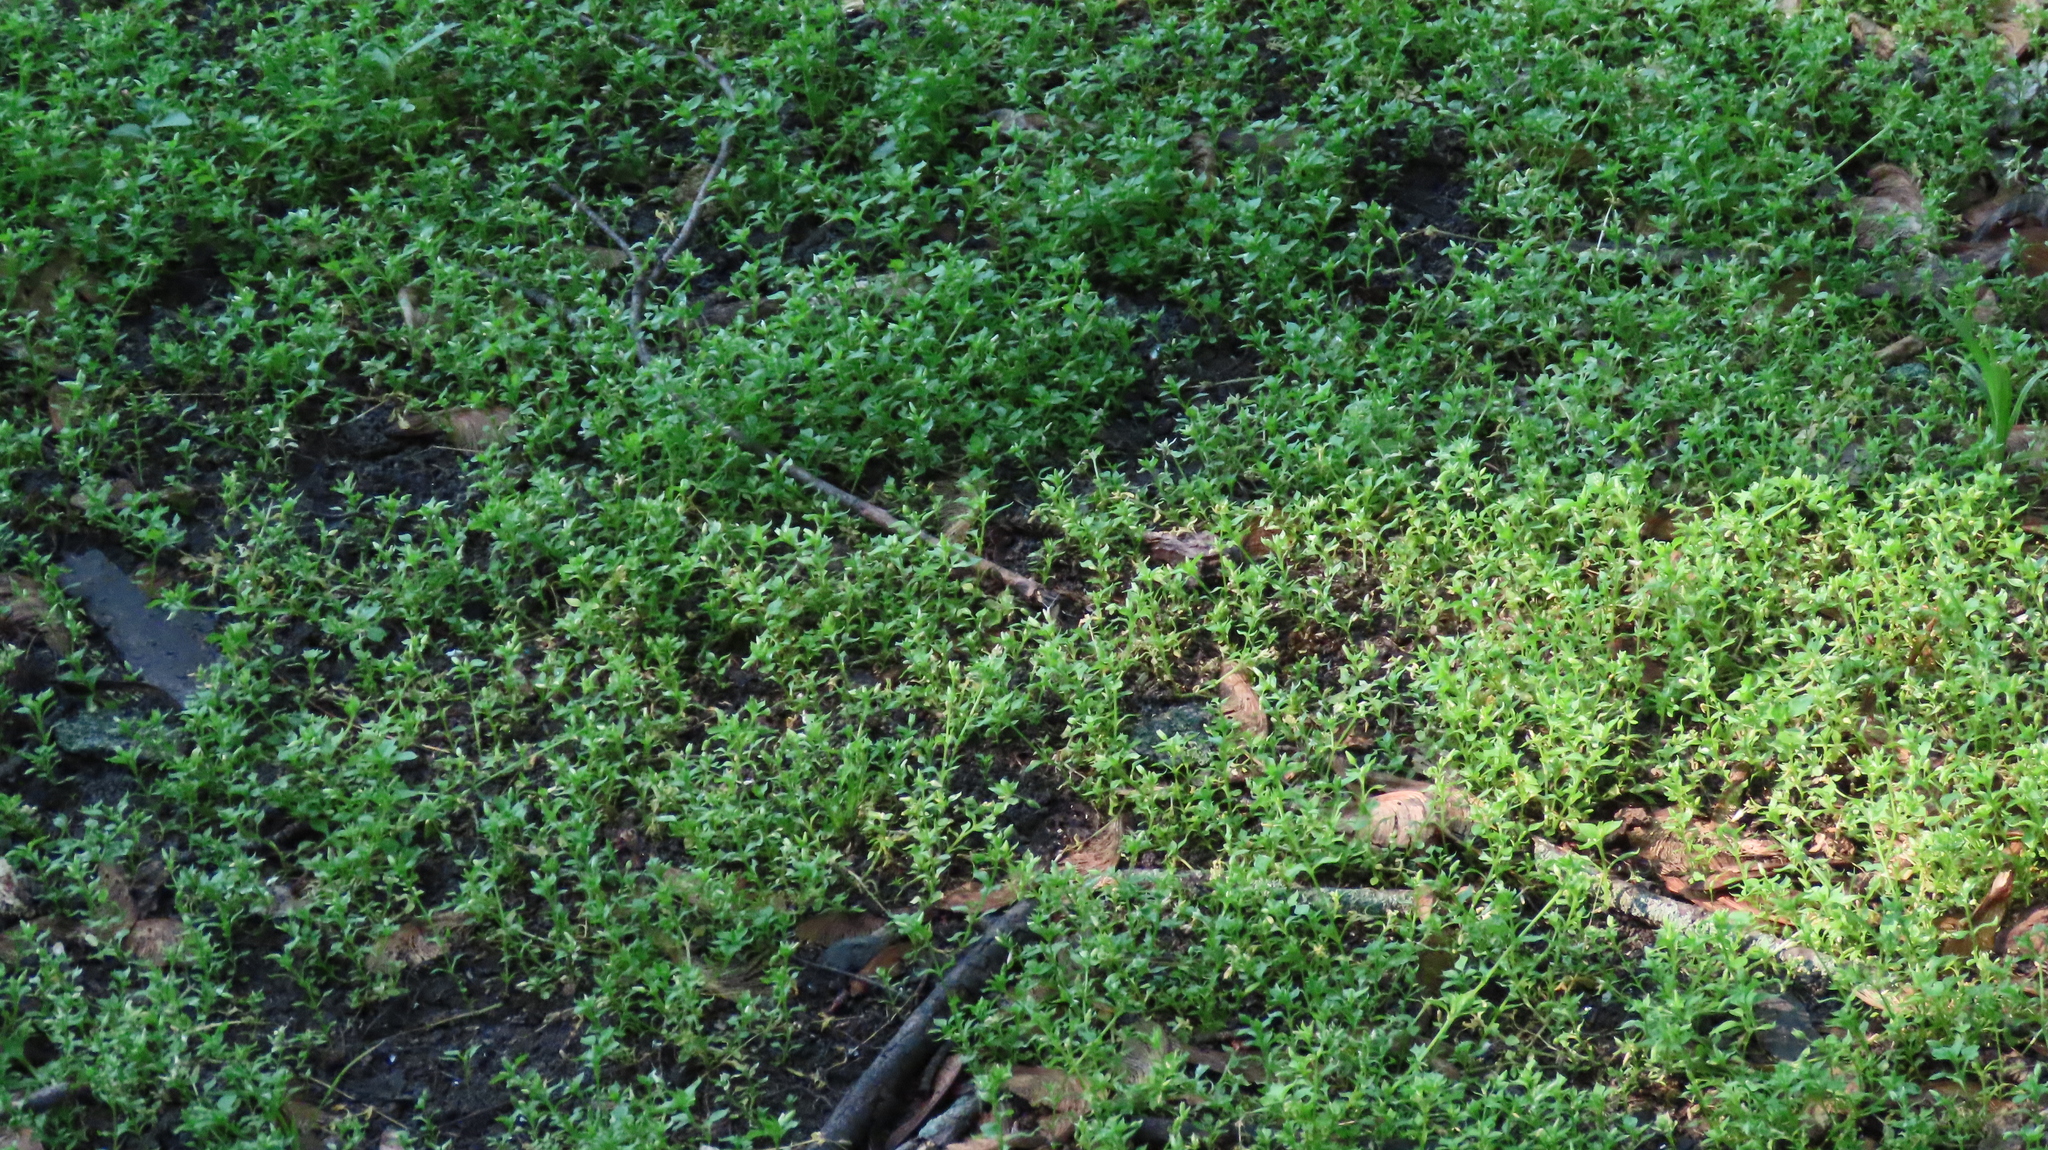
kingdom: Plantae
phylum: Tracheophyta
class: Magnoliopsida
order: Caryophyllales
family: Caryophyllaceae
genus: Stellaria
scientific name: Stellaria media
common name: Common chickweed
